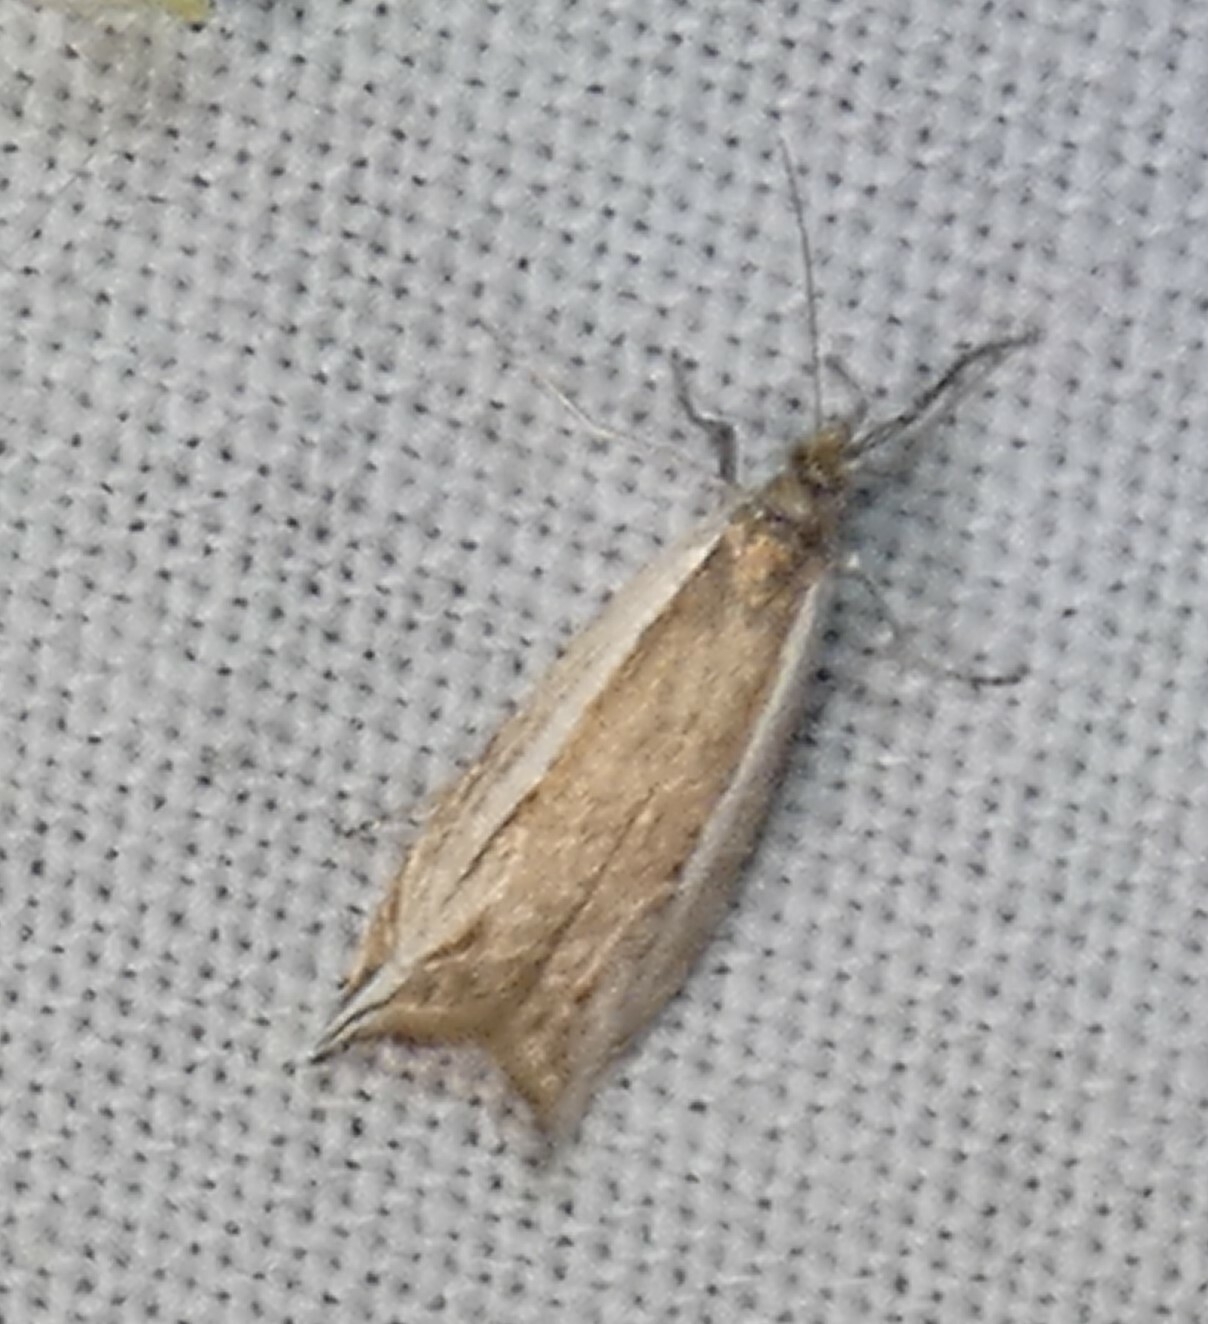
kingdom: Animalia
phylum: Arthropoda
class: Insecta
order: Lepidoptera
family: Crambidae
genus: Raphiptera
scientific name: Raphiptera argillaceellus
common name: Diminutive grass-veneer
